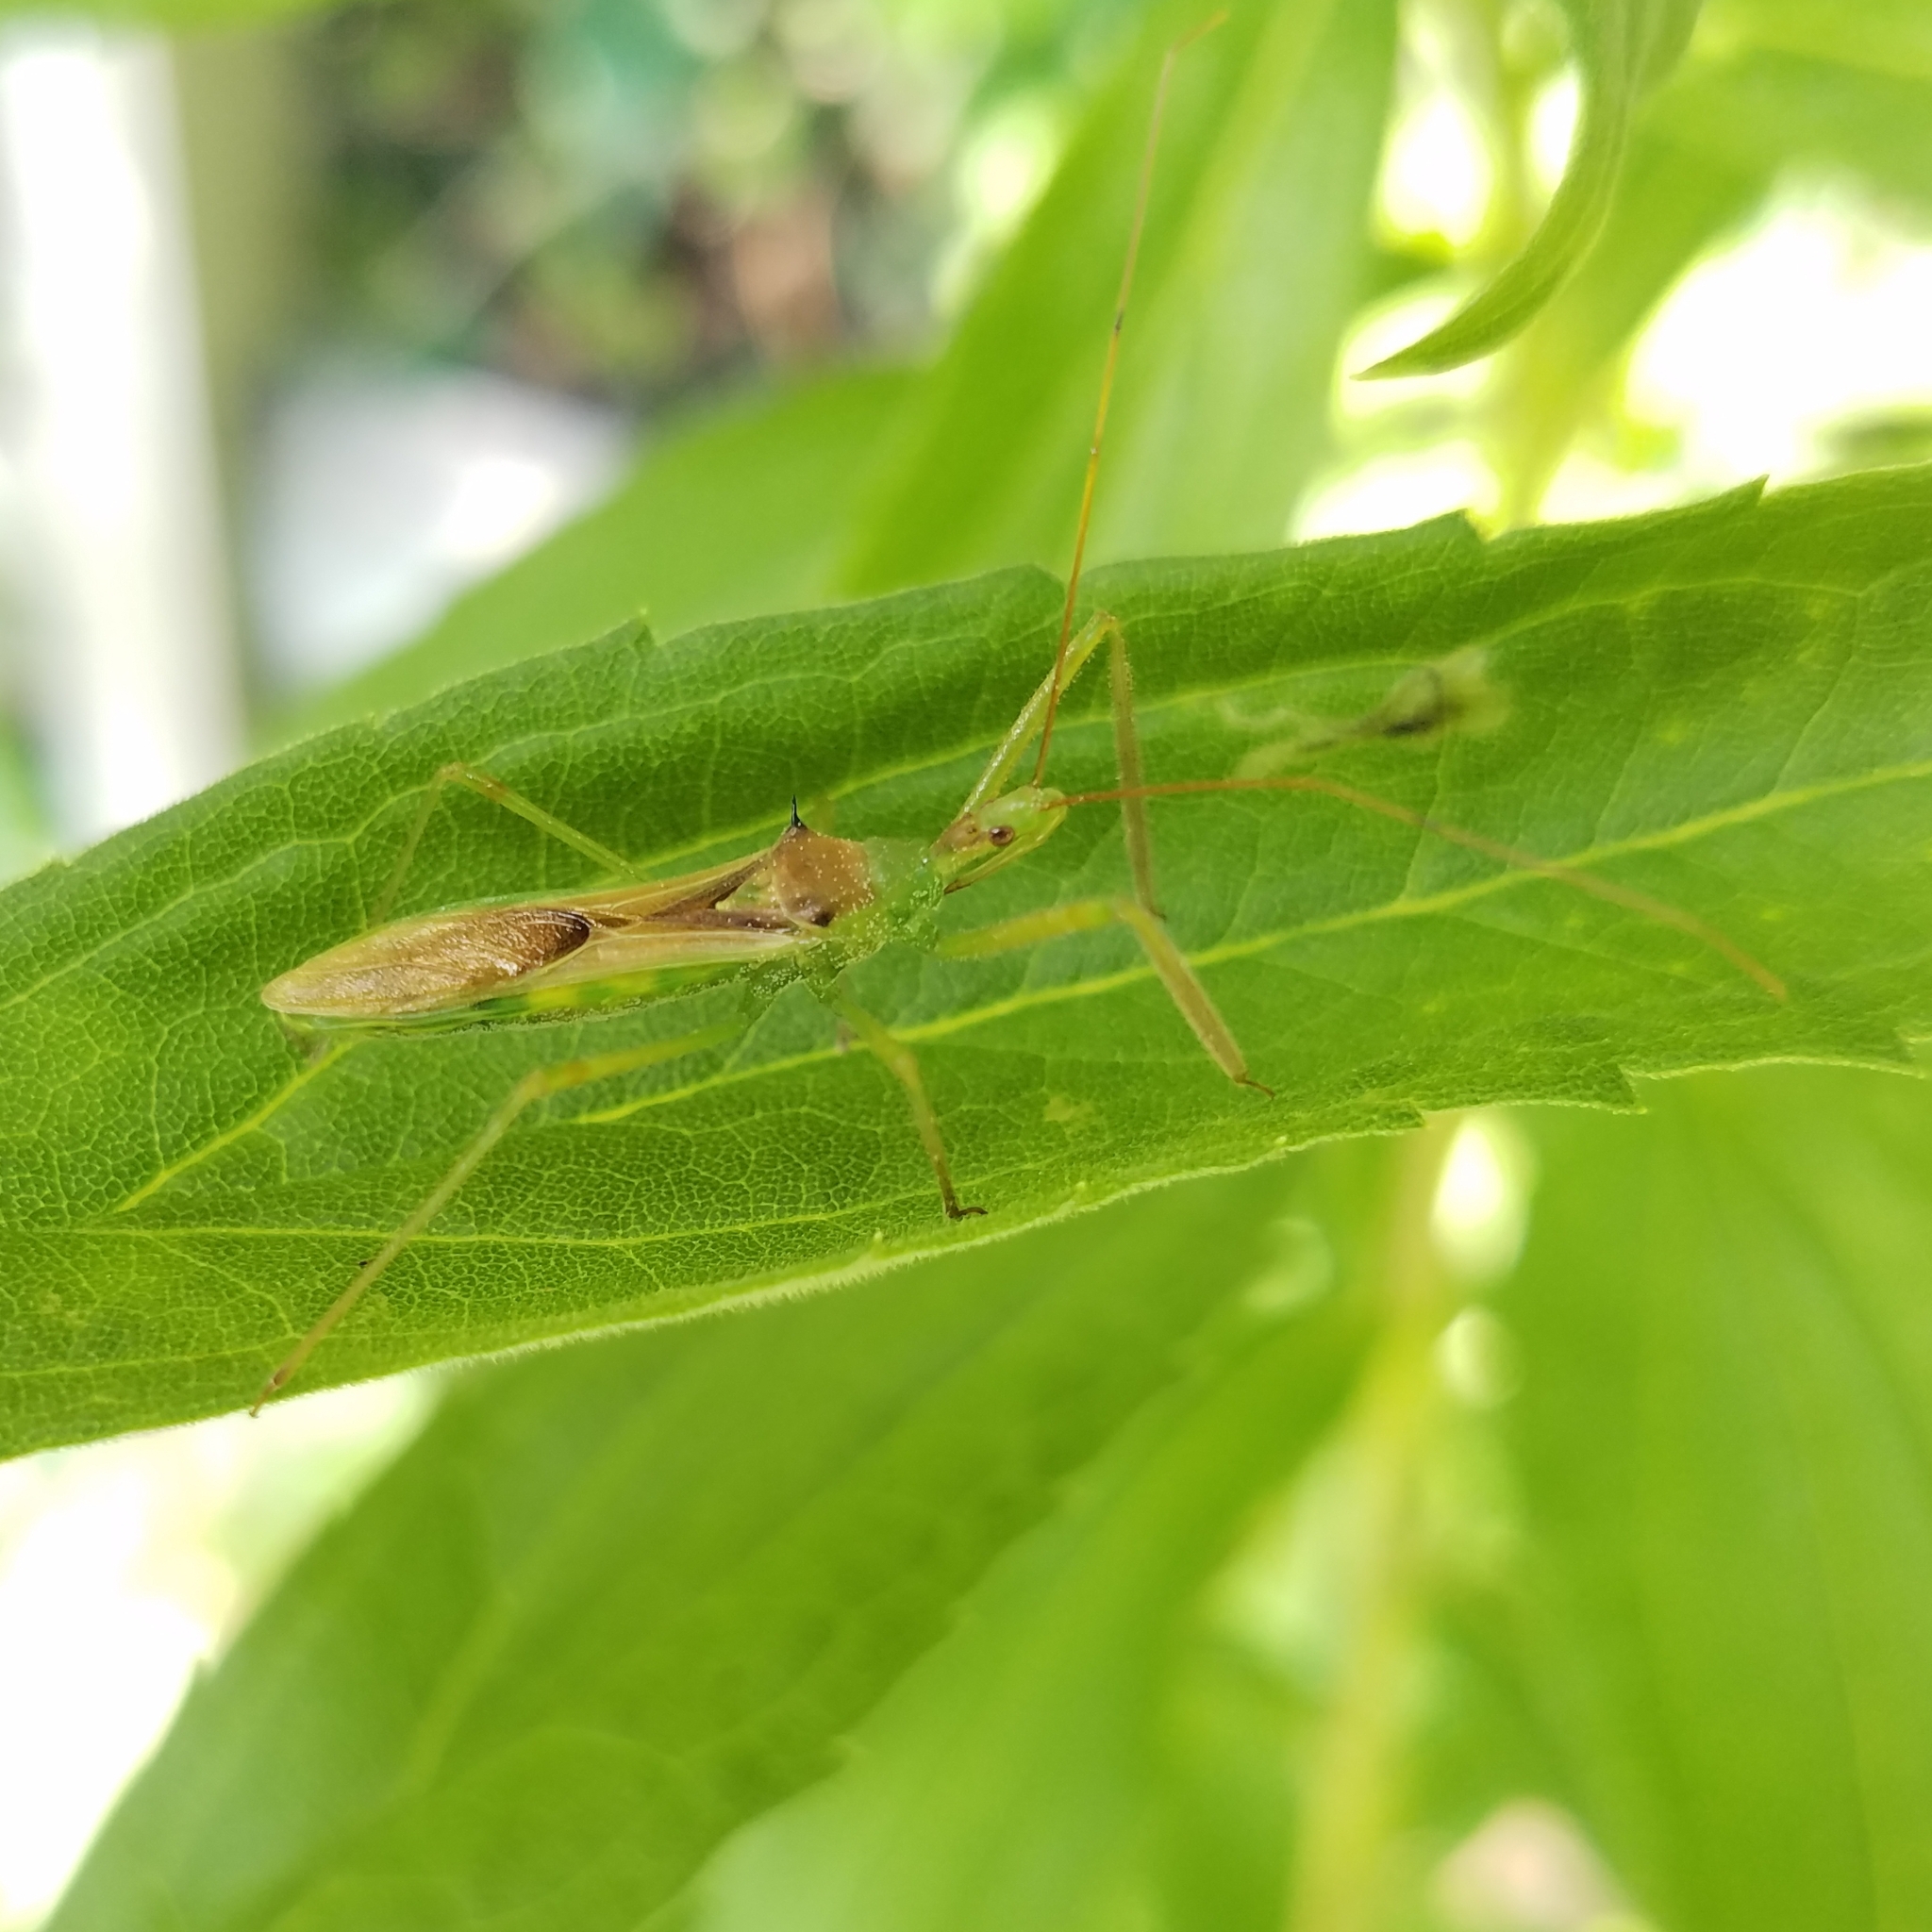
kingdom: Animalia
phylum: Arthropoda
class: Insecta
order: Hemiptera
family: Reduviidae
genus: Zelus
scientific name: Zelus luridus
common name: Pale green assassin bug
